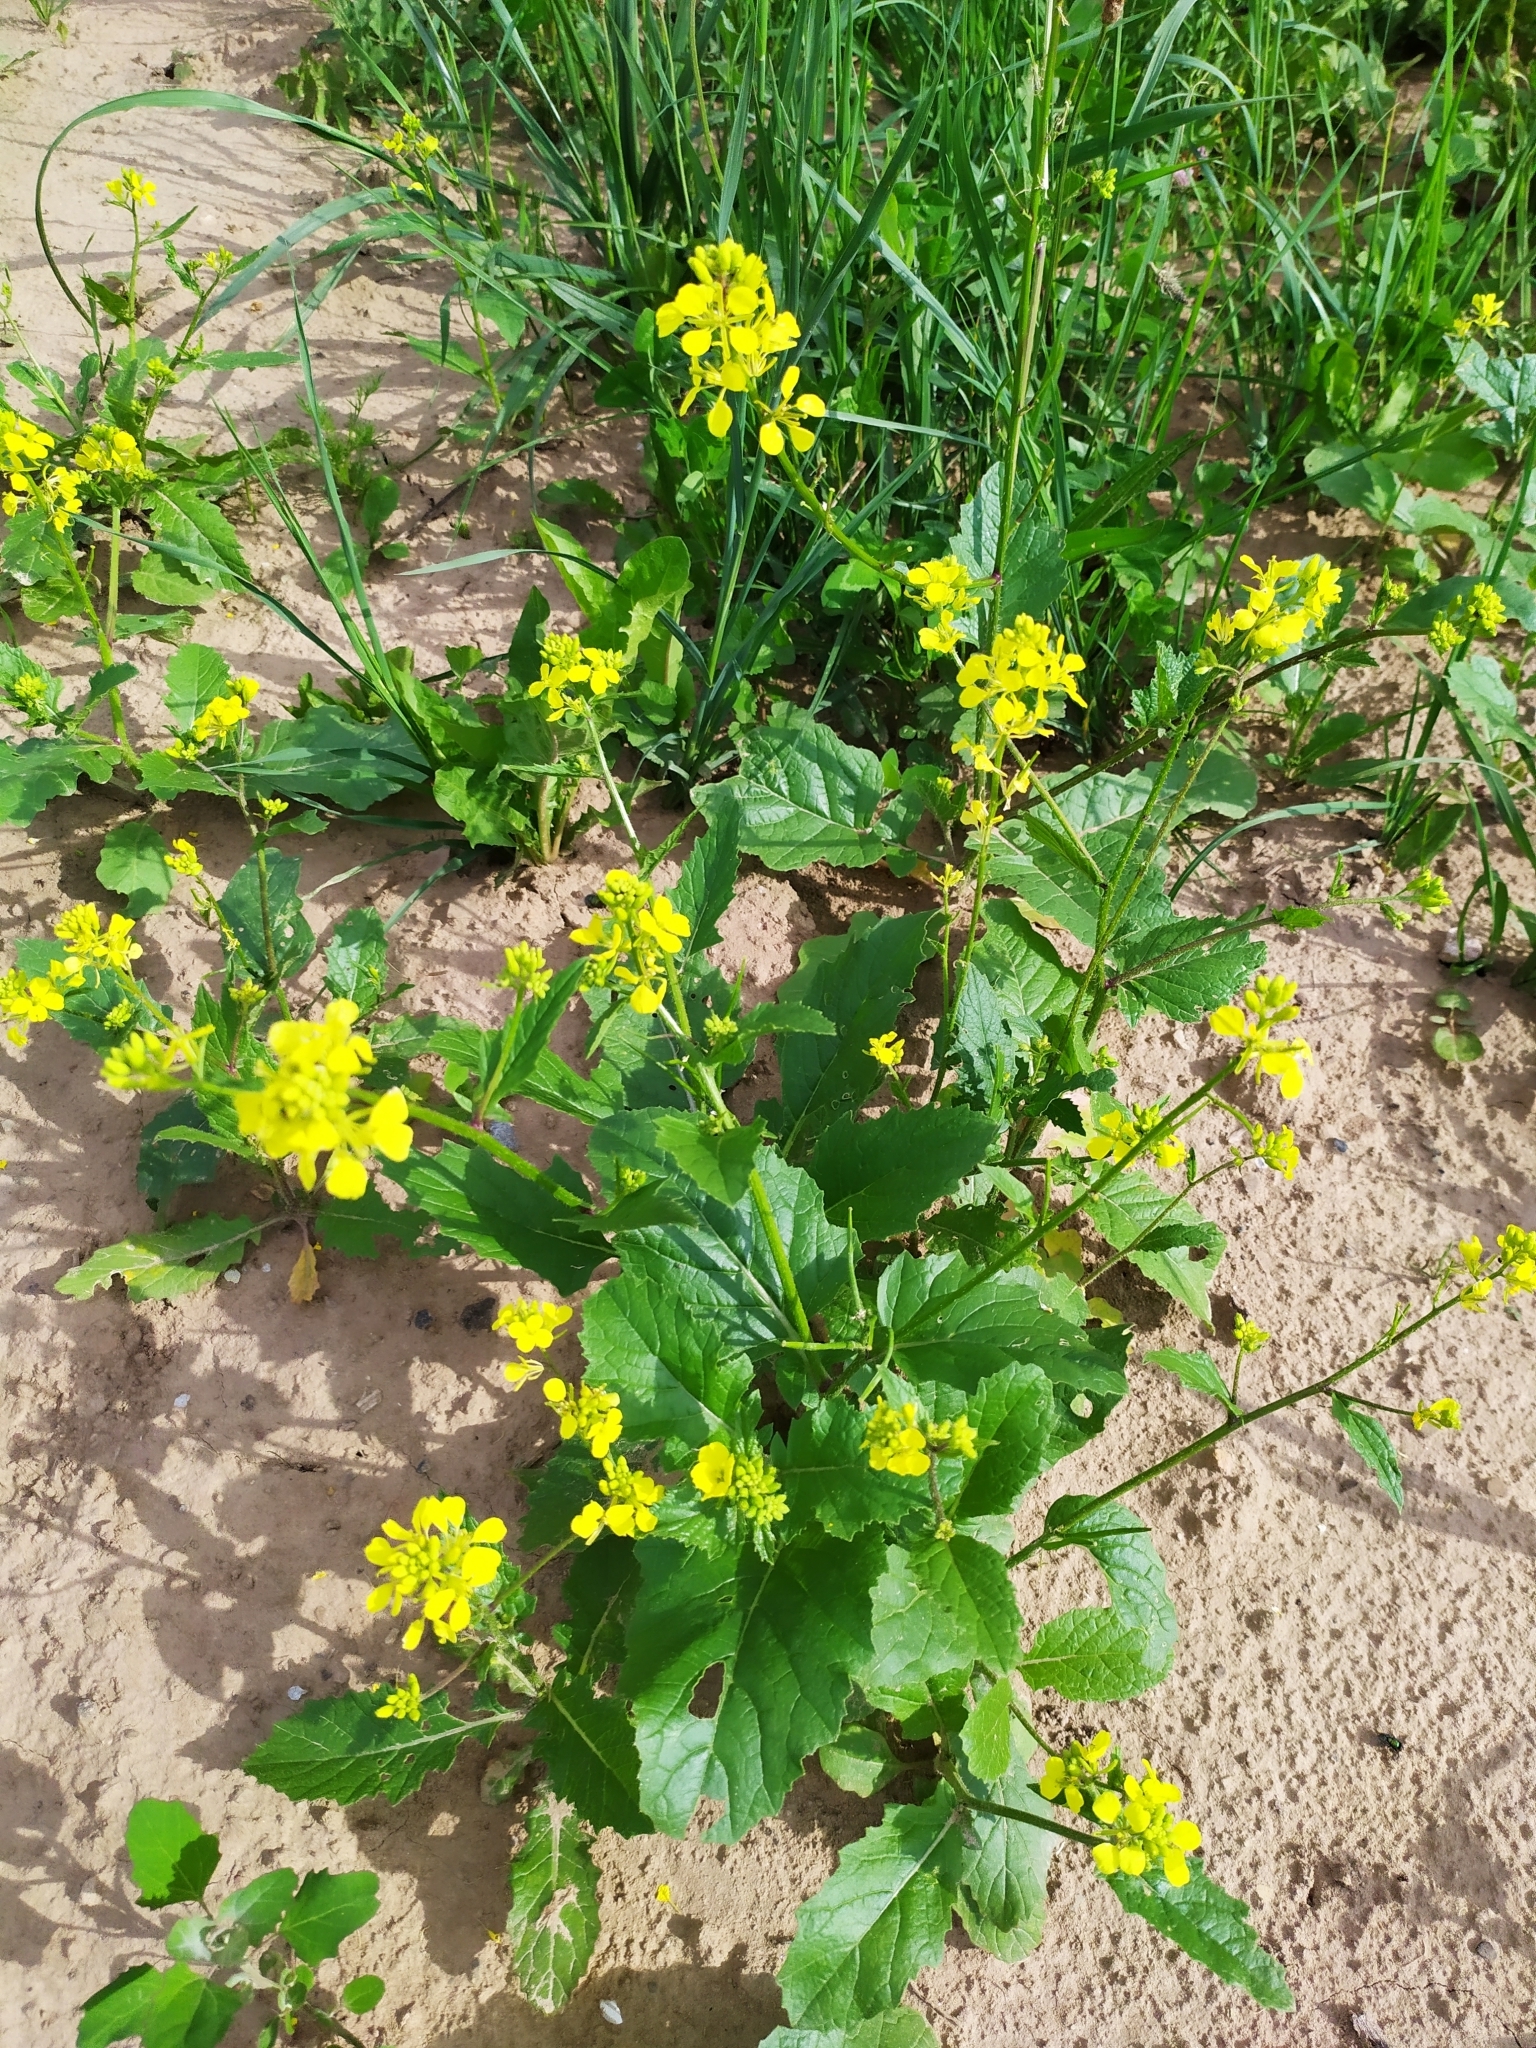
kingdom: Plantae
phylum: Tracheophyta
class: Magnoliopsida
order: Brassicales
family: Brassicaceae
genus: Sinapis
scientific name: Sinapis arvensis
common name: Charlock
